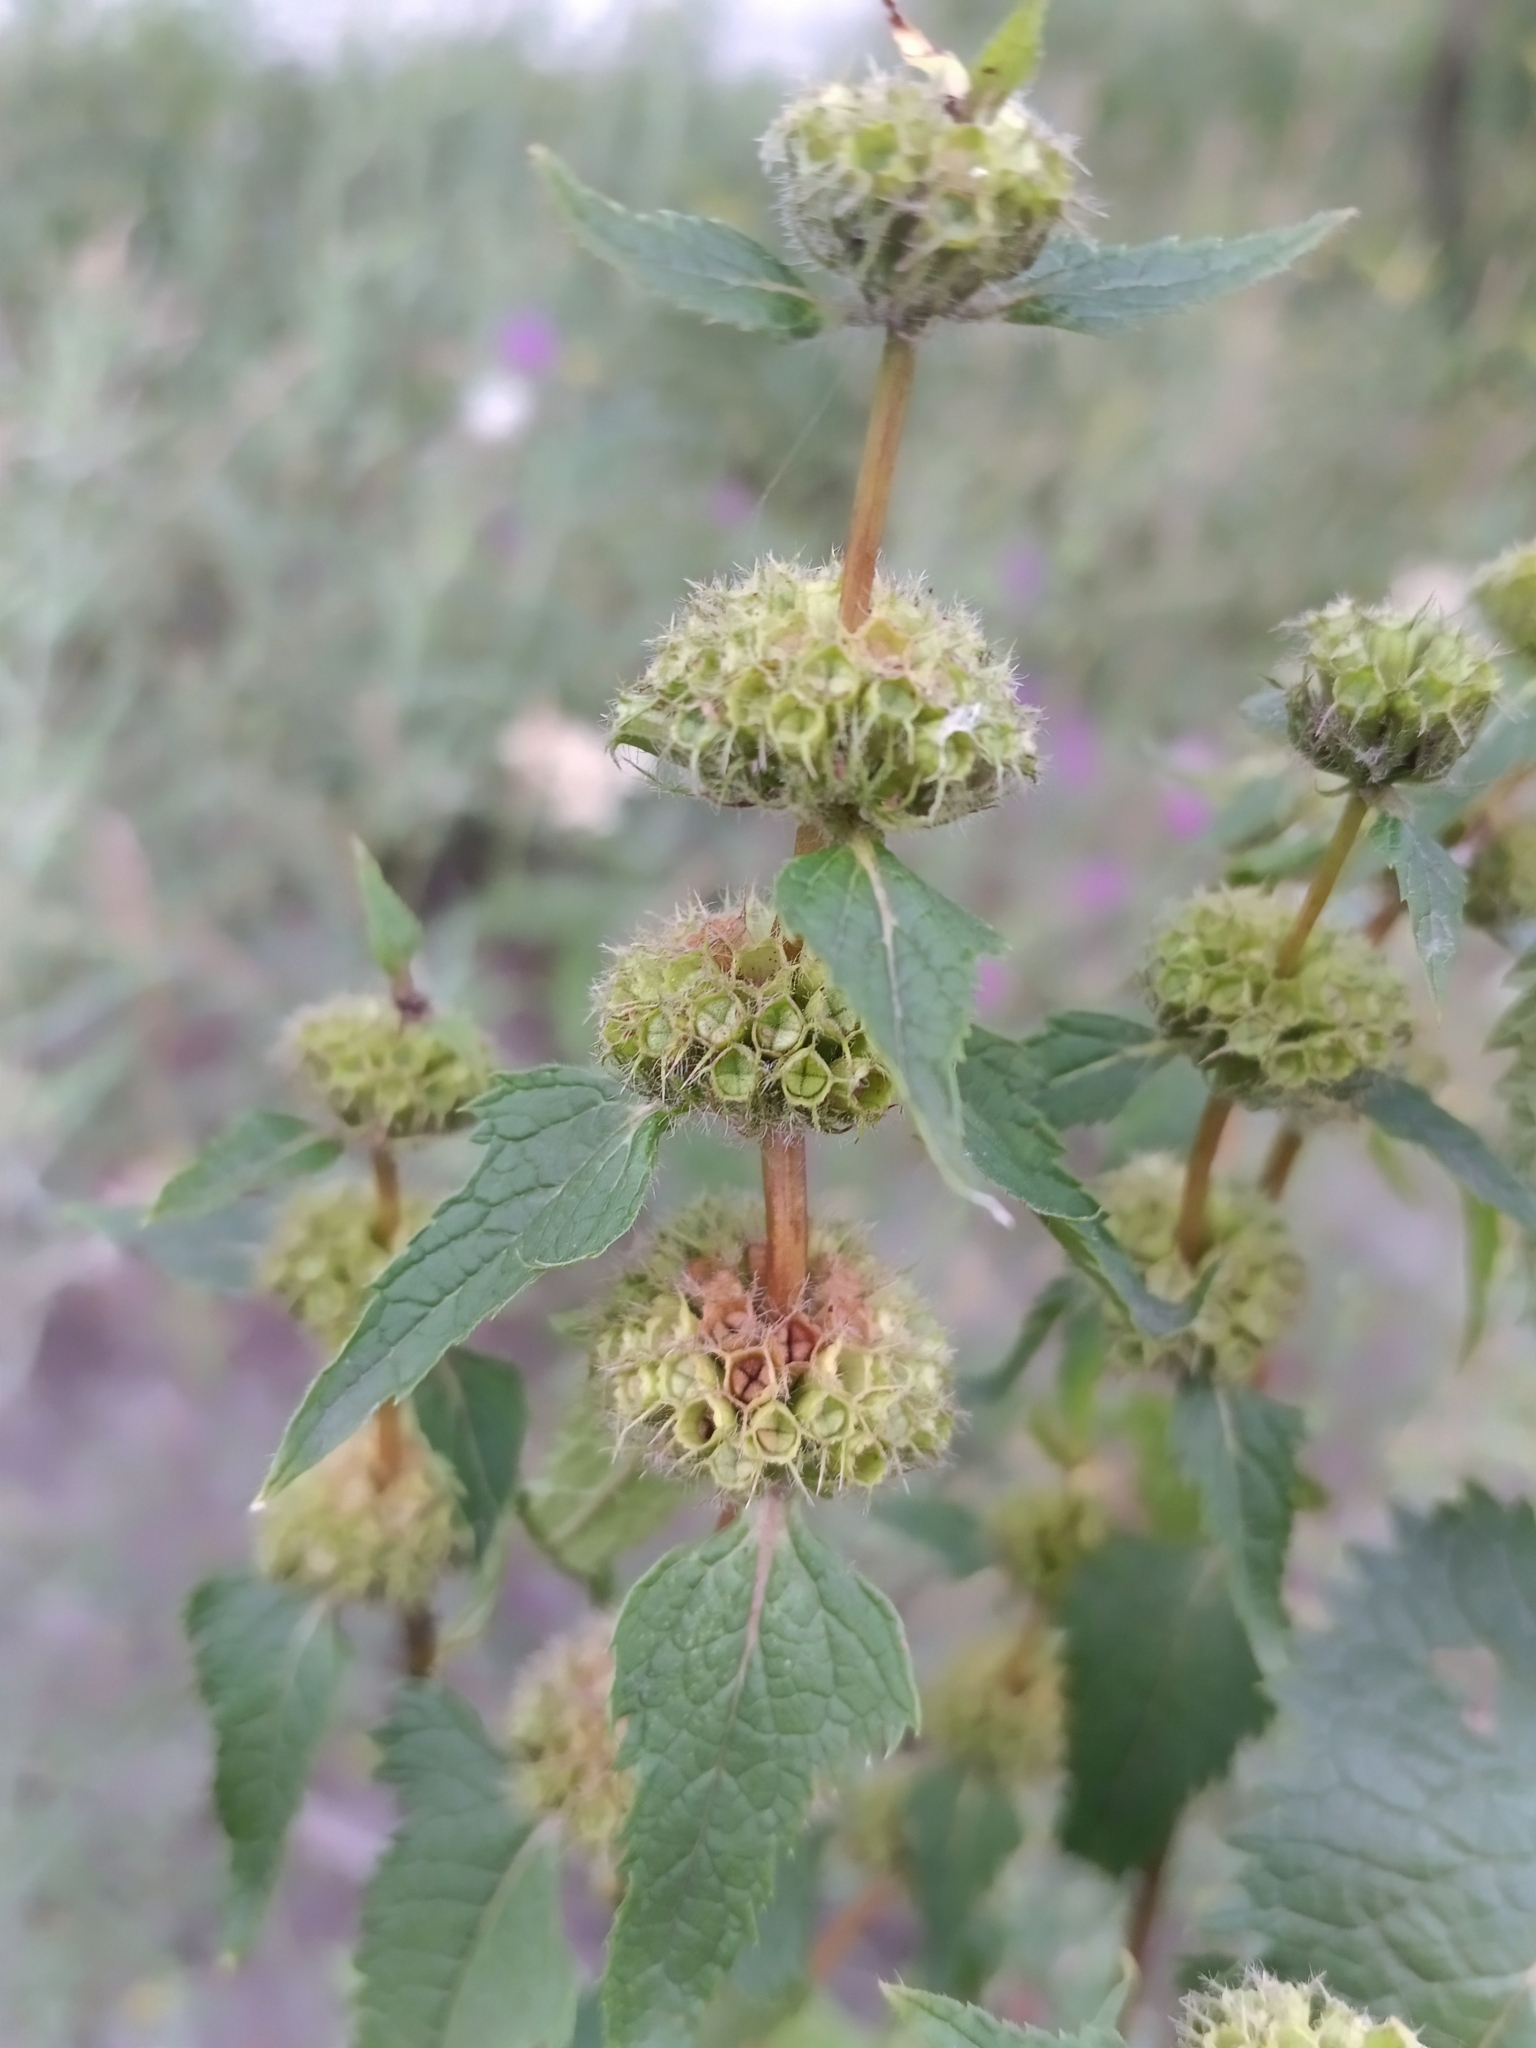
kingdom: Plantae
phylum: Tracheophyta
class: Magnoliopsida
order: Lamiales
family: Lamiaceae
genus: Phlomoides
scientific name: Phlomoides tuberosa
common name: Tuberous jerusalem sage
